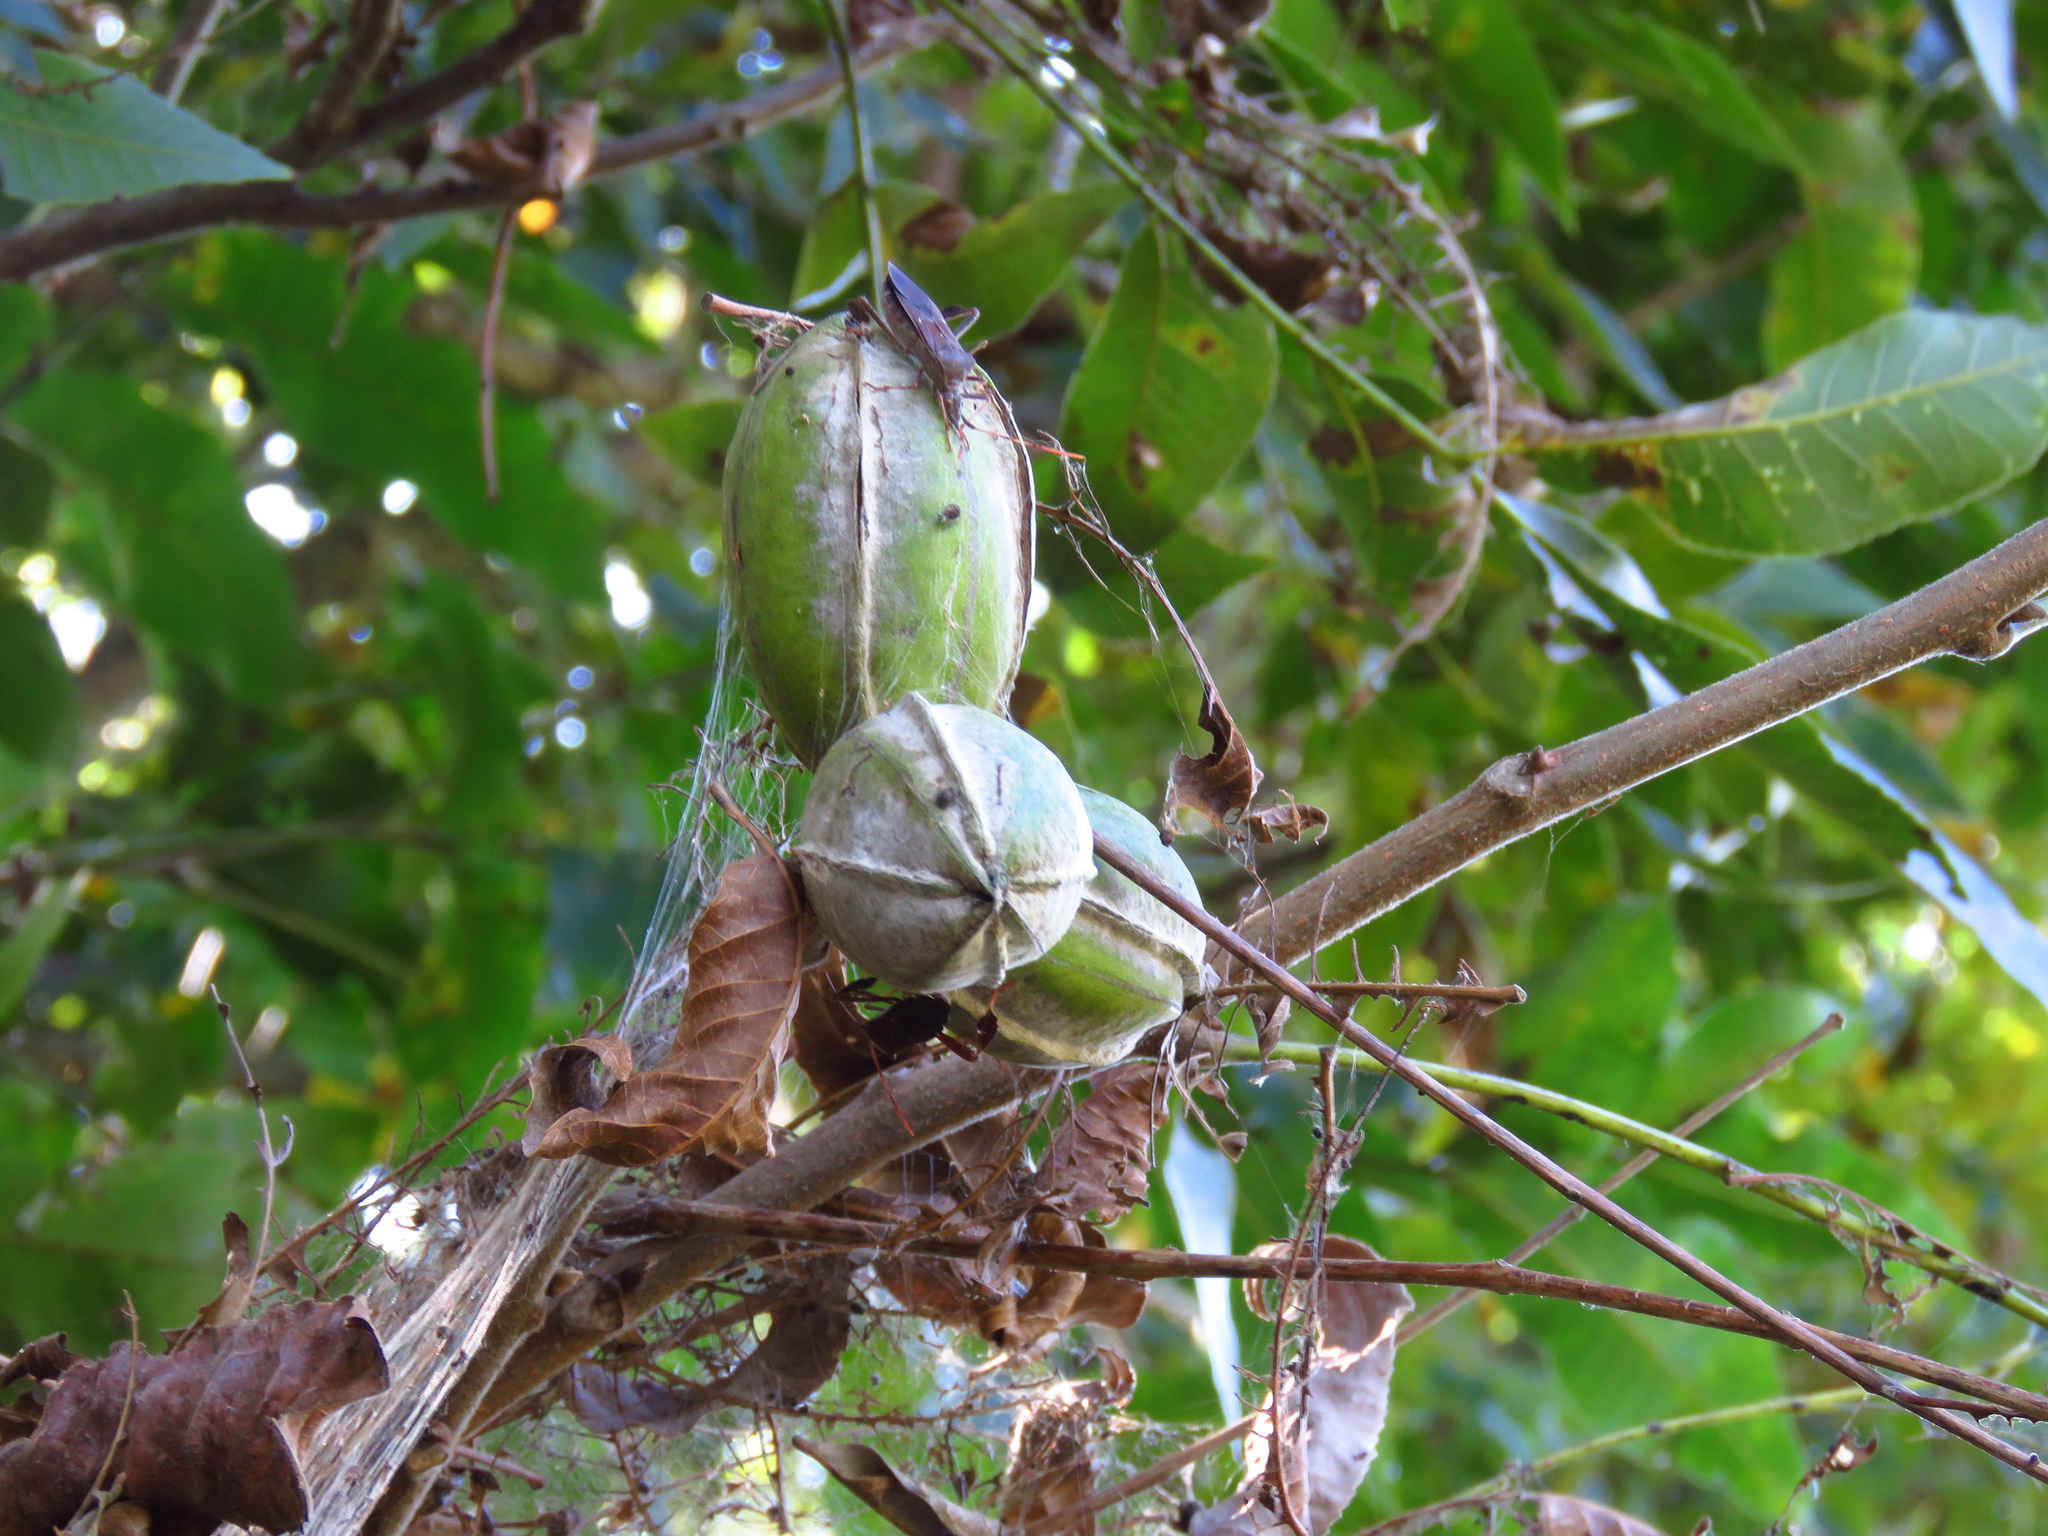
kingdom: Plantae
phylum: Tracheophyta
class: Magnoliopsida
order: Fagales
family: Juglandaceae
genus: Carya
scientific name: Carya illinoinensis
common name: Pecan
